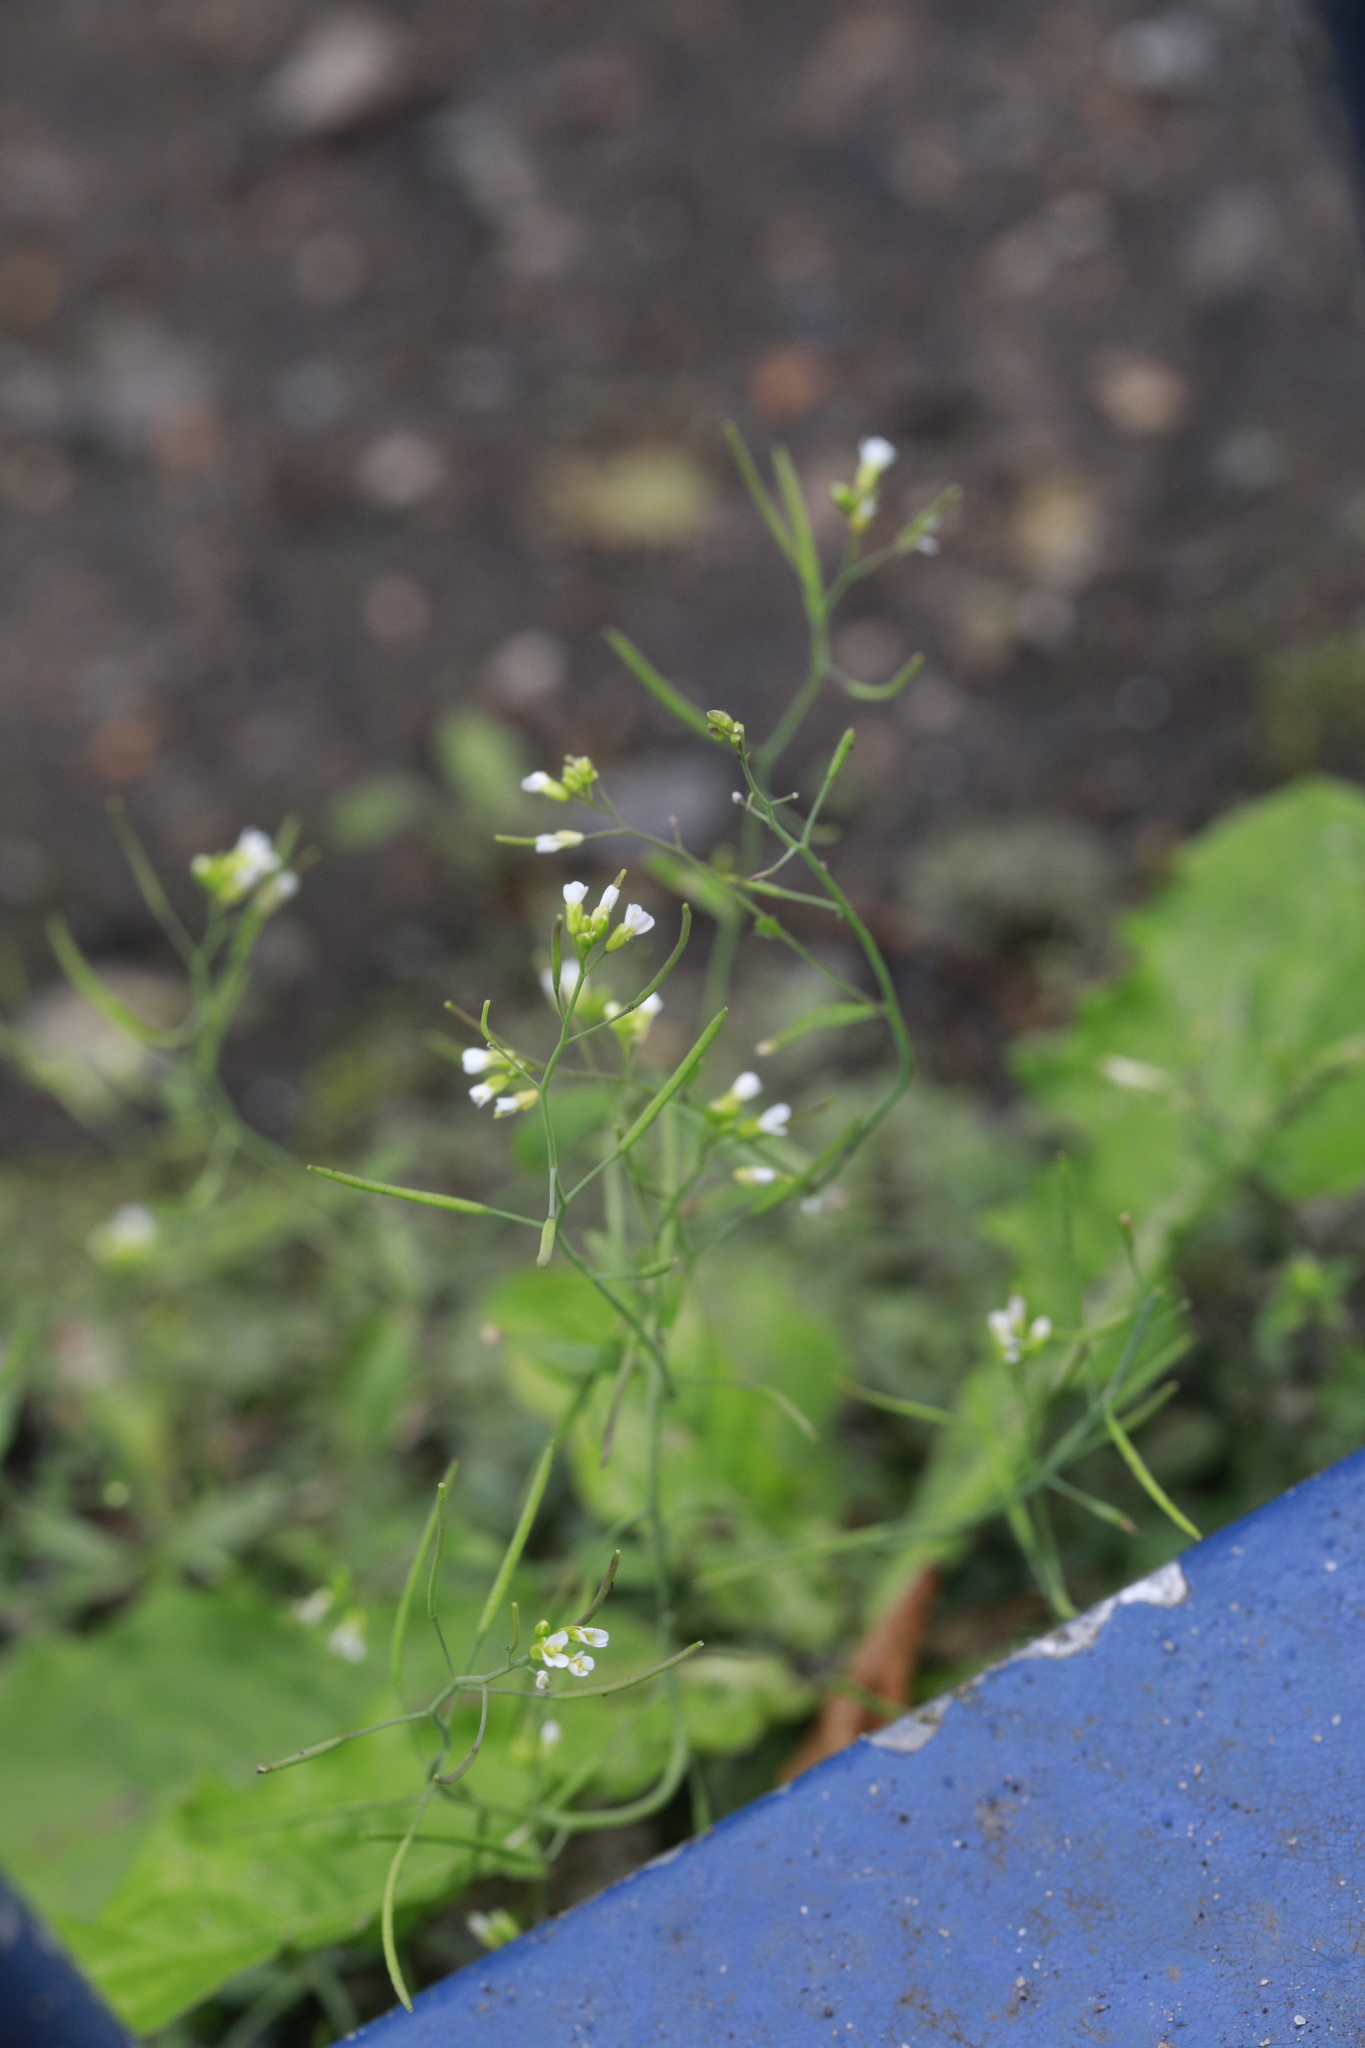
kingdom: Plantae
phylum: Tracheophyta
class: Magnoliopsida
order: Brassicales
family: Brassicaceae
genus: Arabidopsis
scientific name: Arabidopsis thaliana
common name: Thale cress
